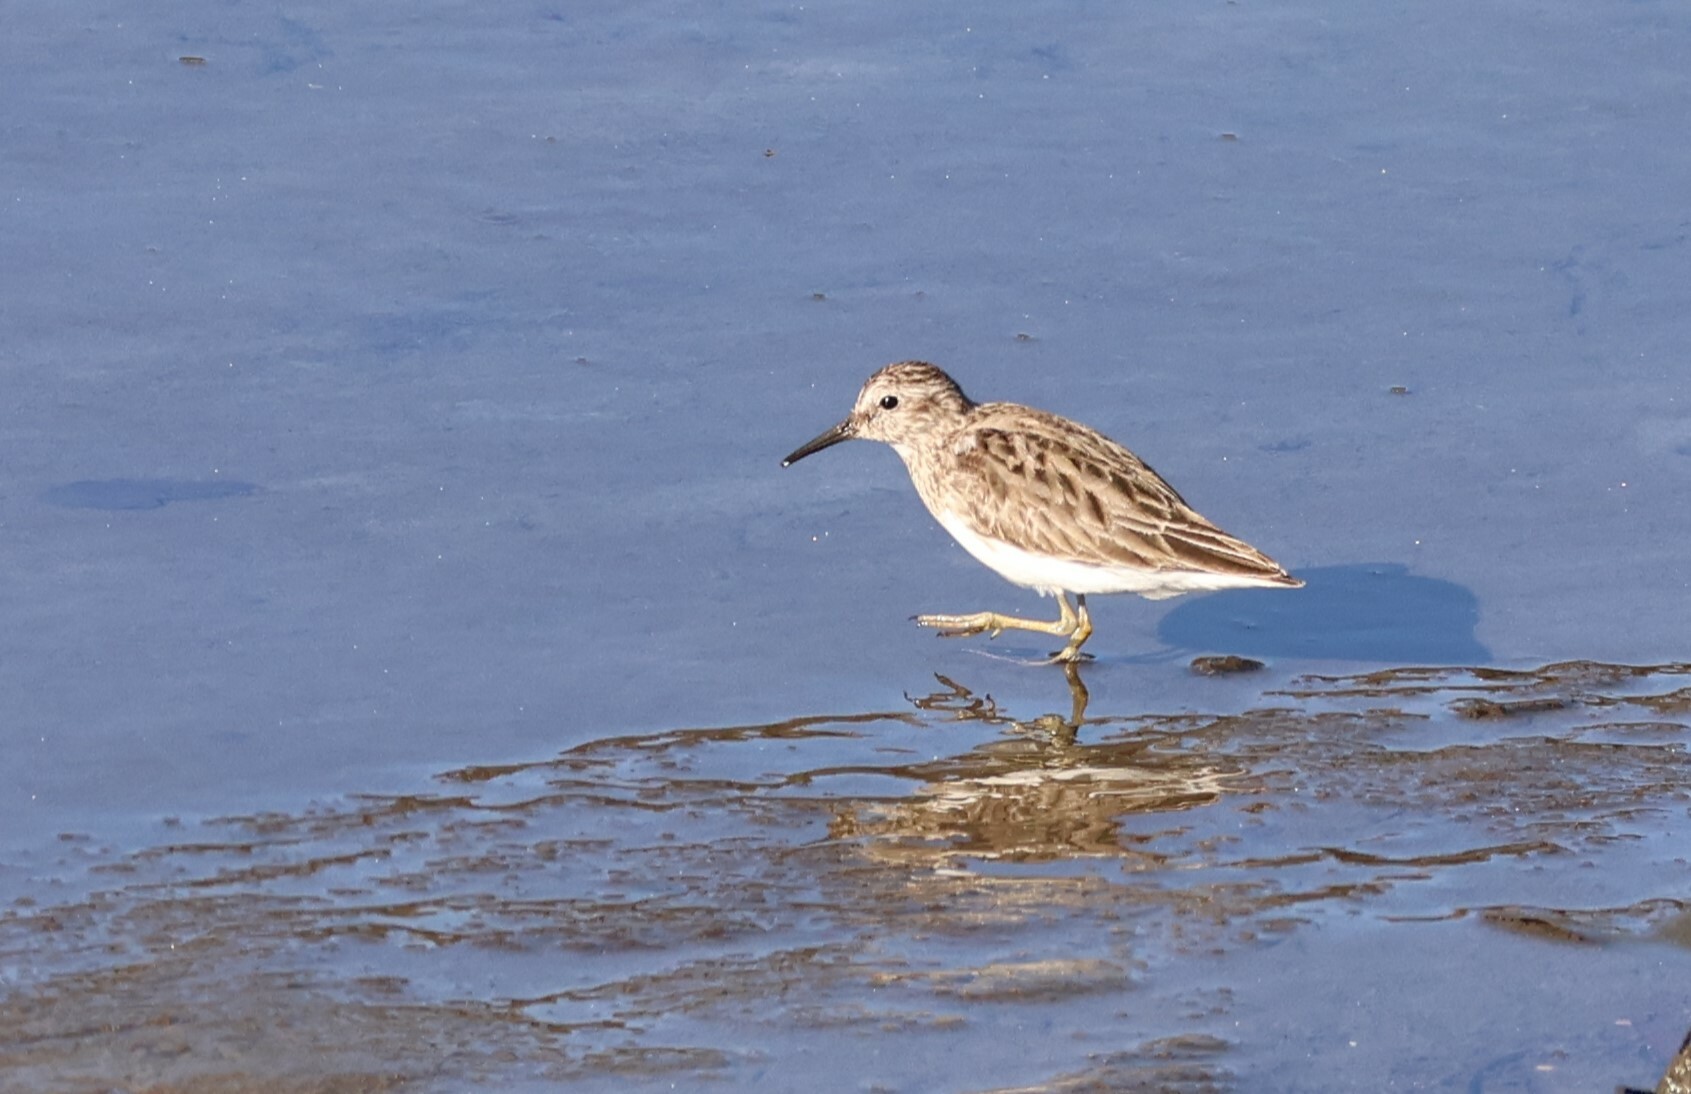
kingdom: Animalia
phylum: Chordata
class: Aves
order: Charadriiformes
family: Scolopacidae
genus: Calidris
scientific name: Calidris minutilla
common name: Least sandpiper
